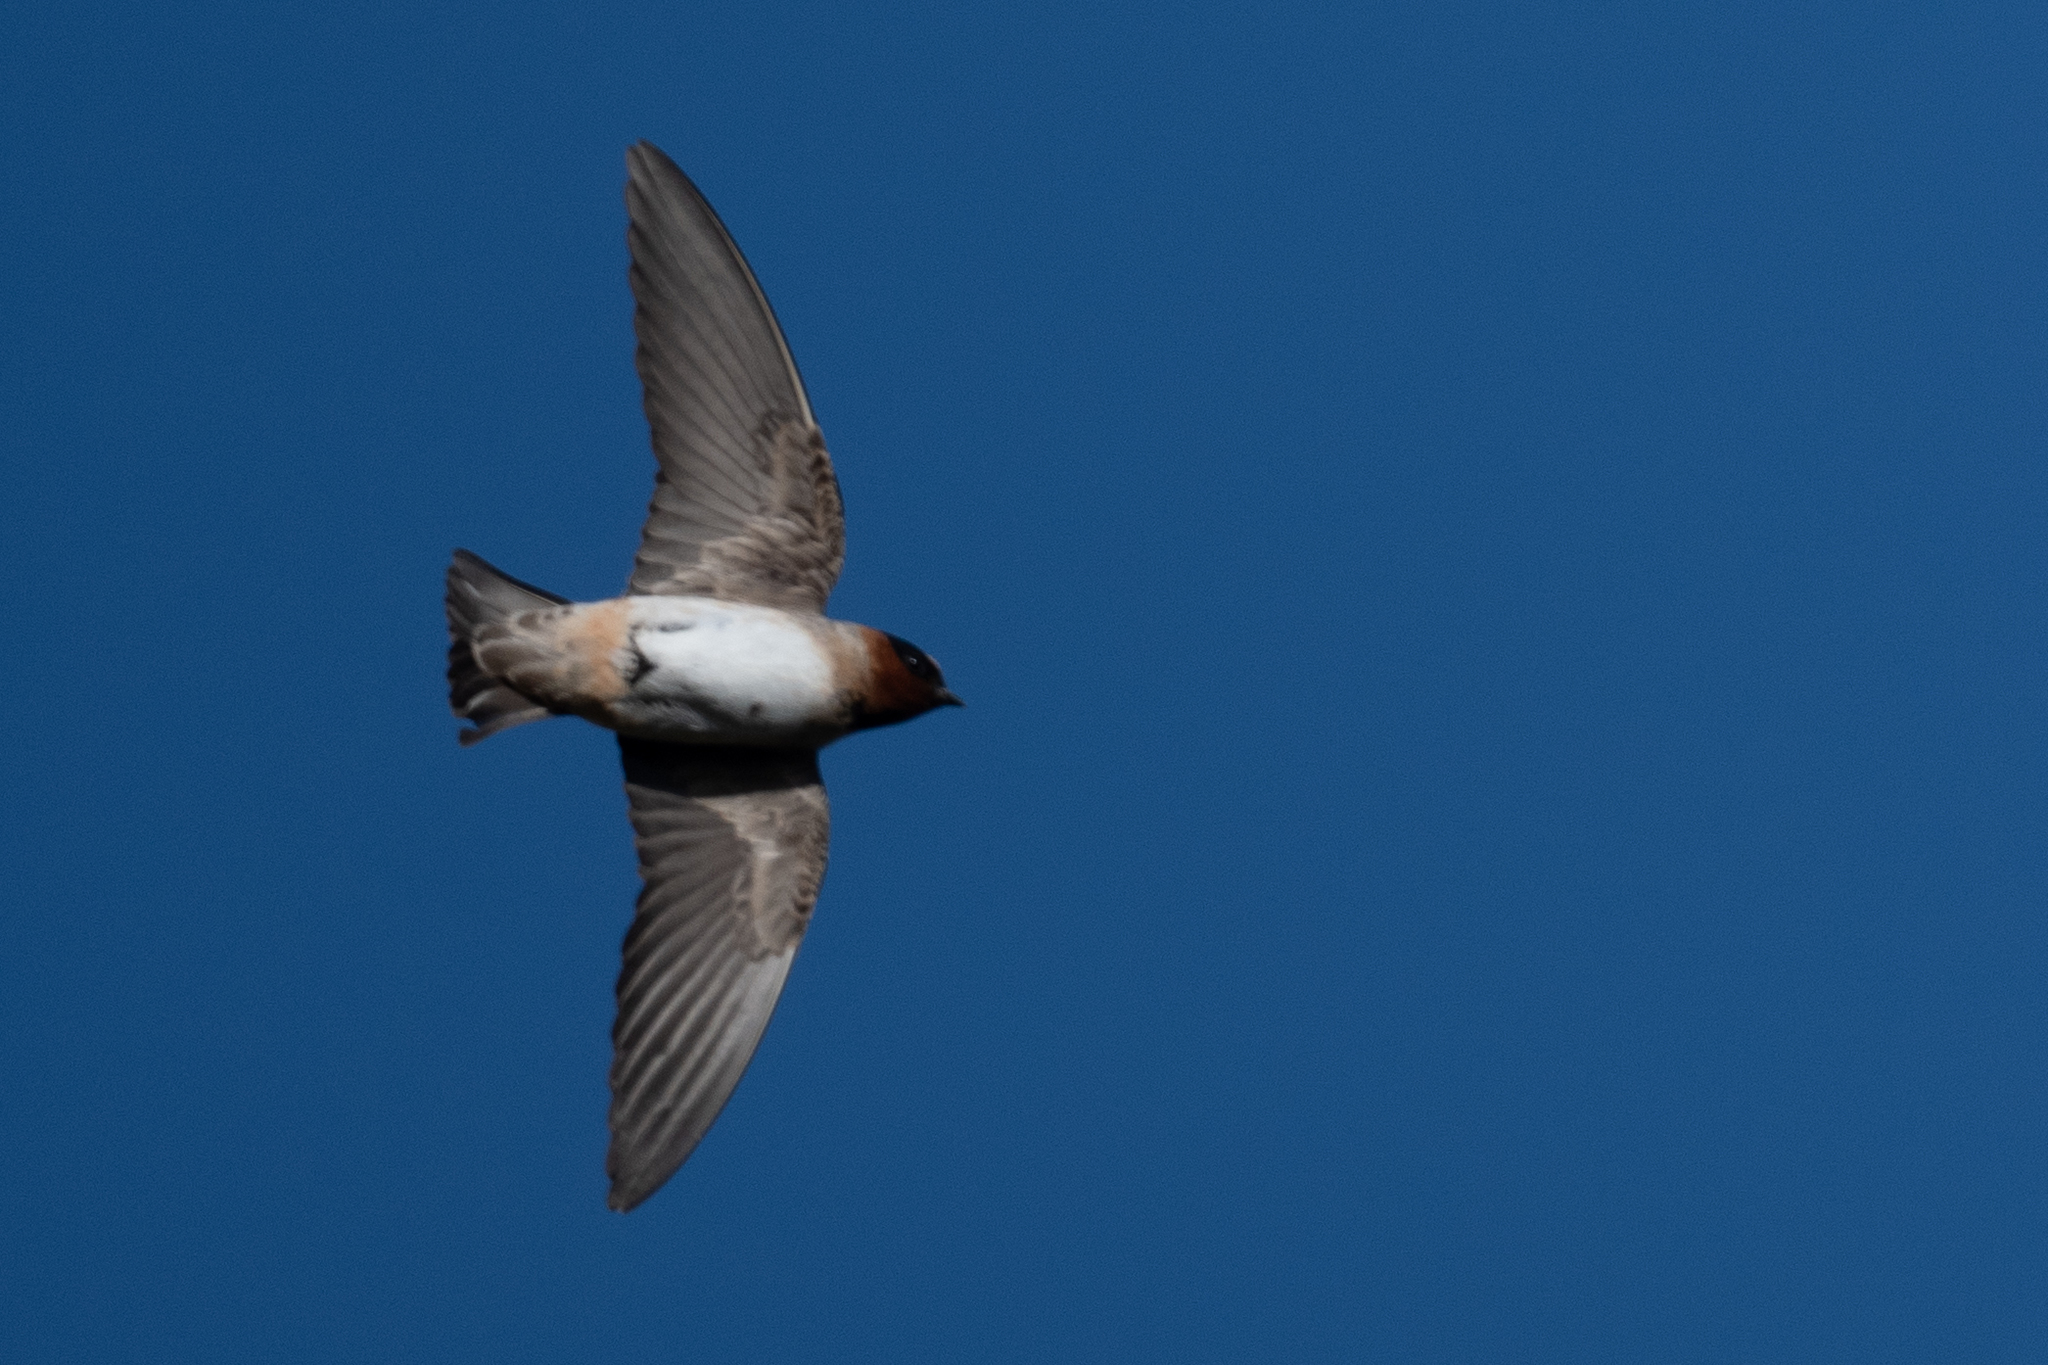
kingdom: Animalia
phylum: Chordata
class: Aves
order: Passeriformes
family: Hirundinidae
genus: Petrochelidon
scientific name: Petrochelidon pyrrhonota
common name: American cliff swallow
